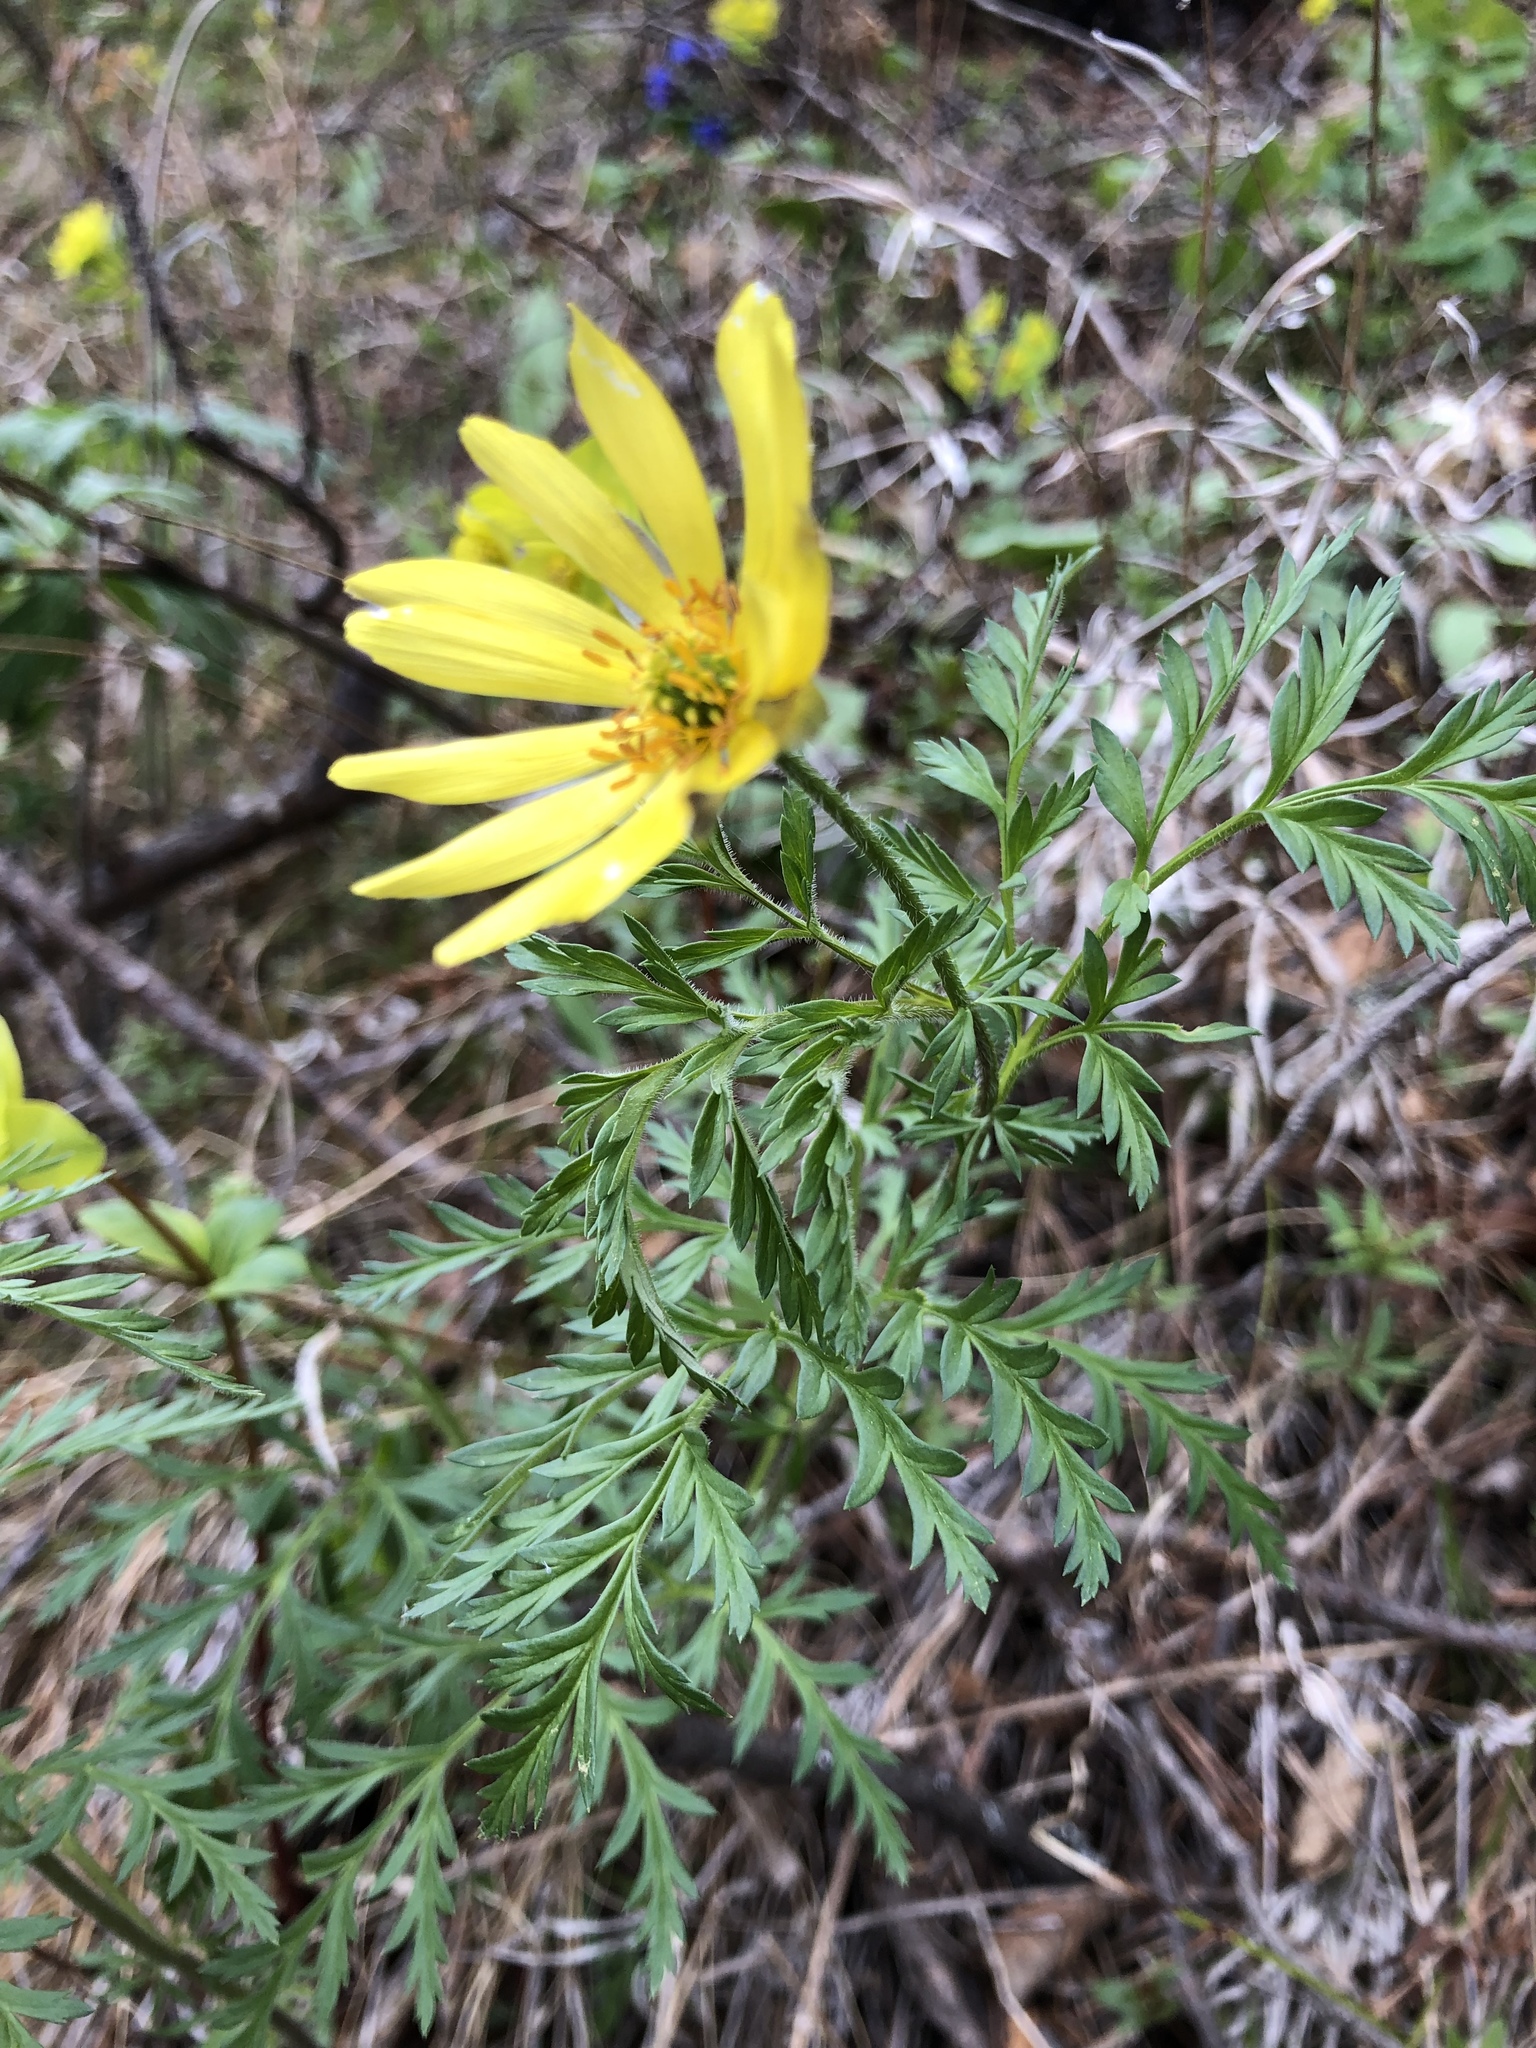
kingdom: Plantae
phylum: Tracheophyta
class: Magnoliopsida
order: Ranunculales
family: Ranunculaceae
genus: Adonis
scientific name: Adonis
